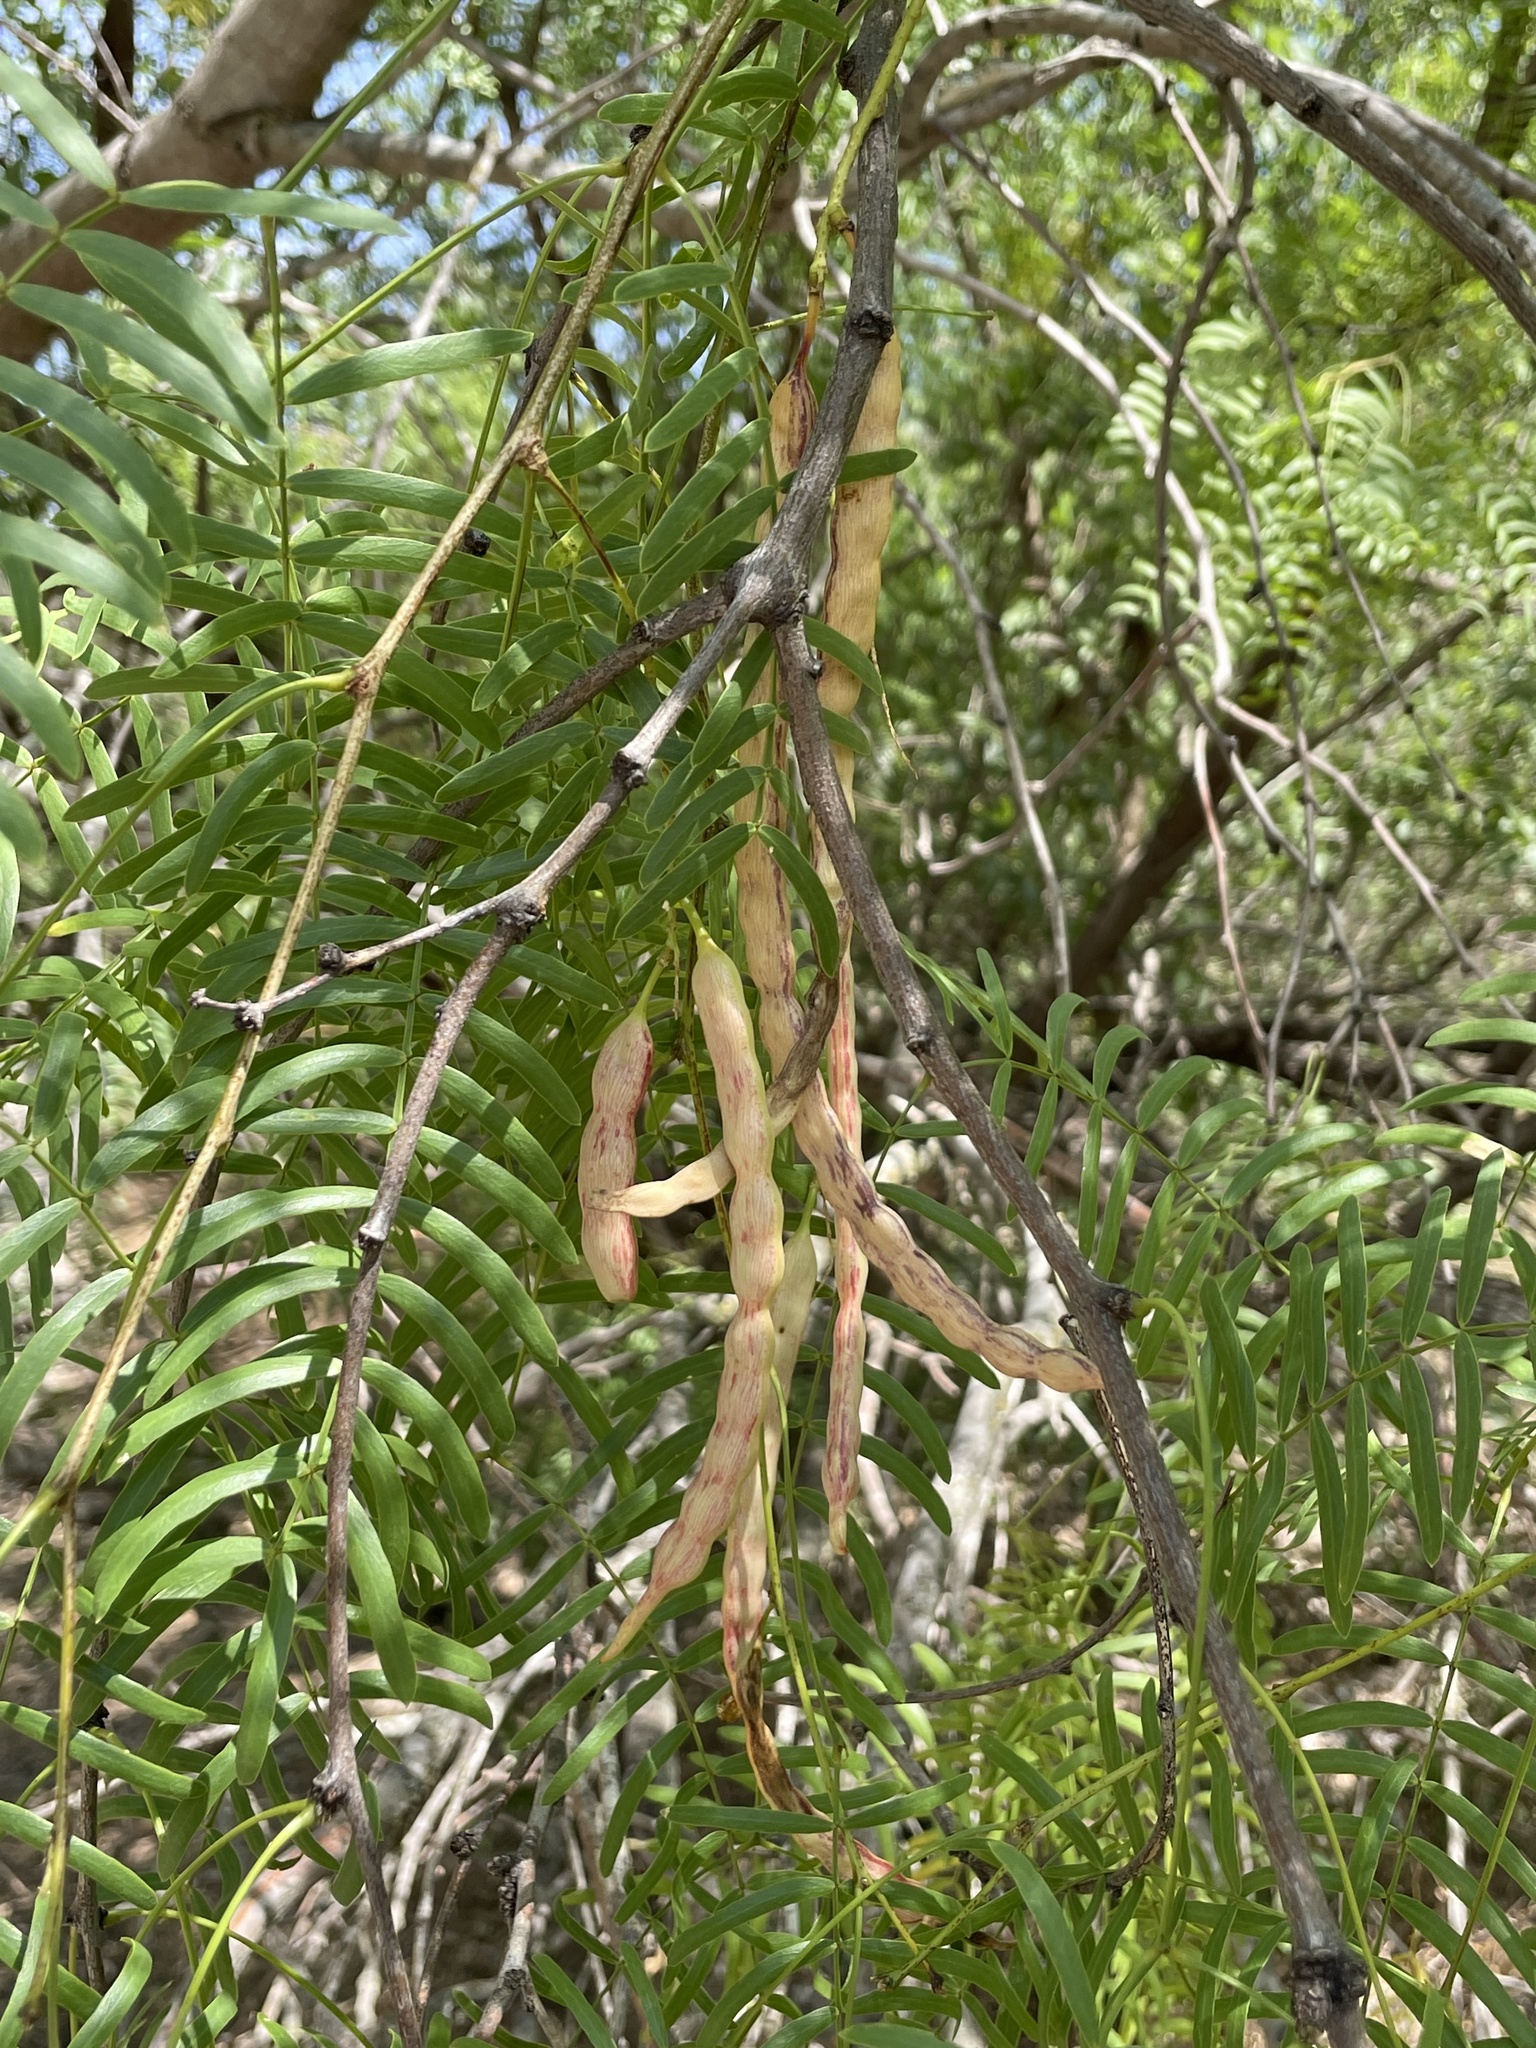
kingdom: Plantae
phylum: Tracheophyta
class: Magnoliopsida
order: Fabales
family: Fabaceae
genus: Prosopis
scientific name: Prosopis glandulosa
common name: Honey mesquite
